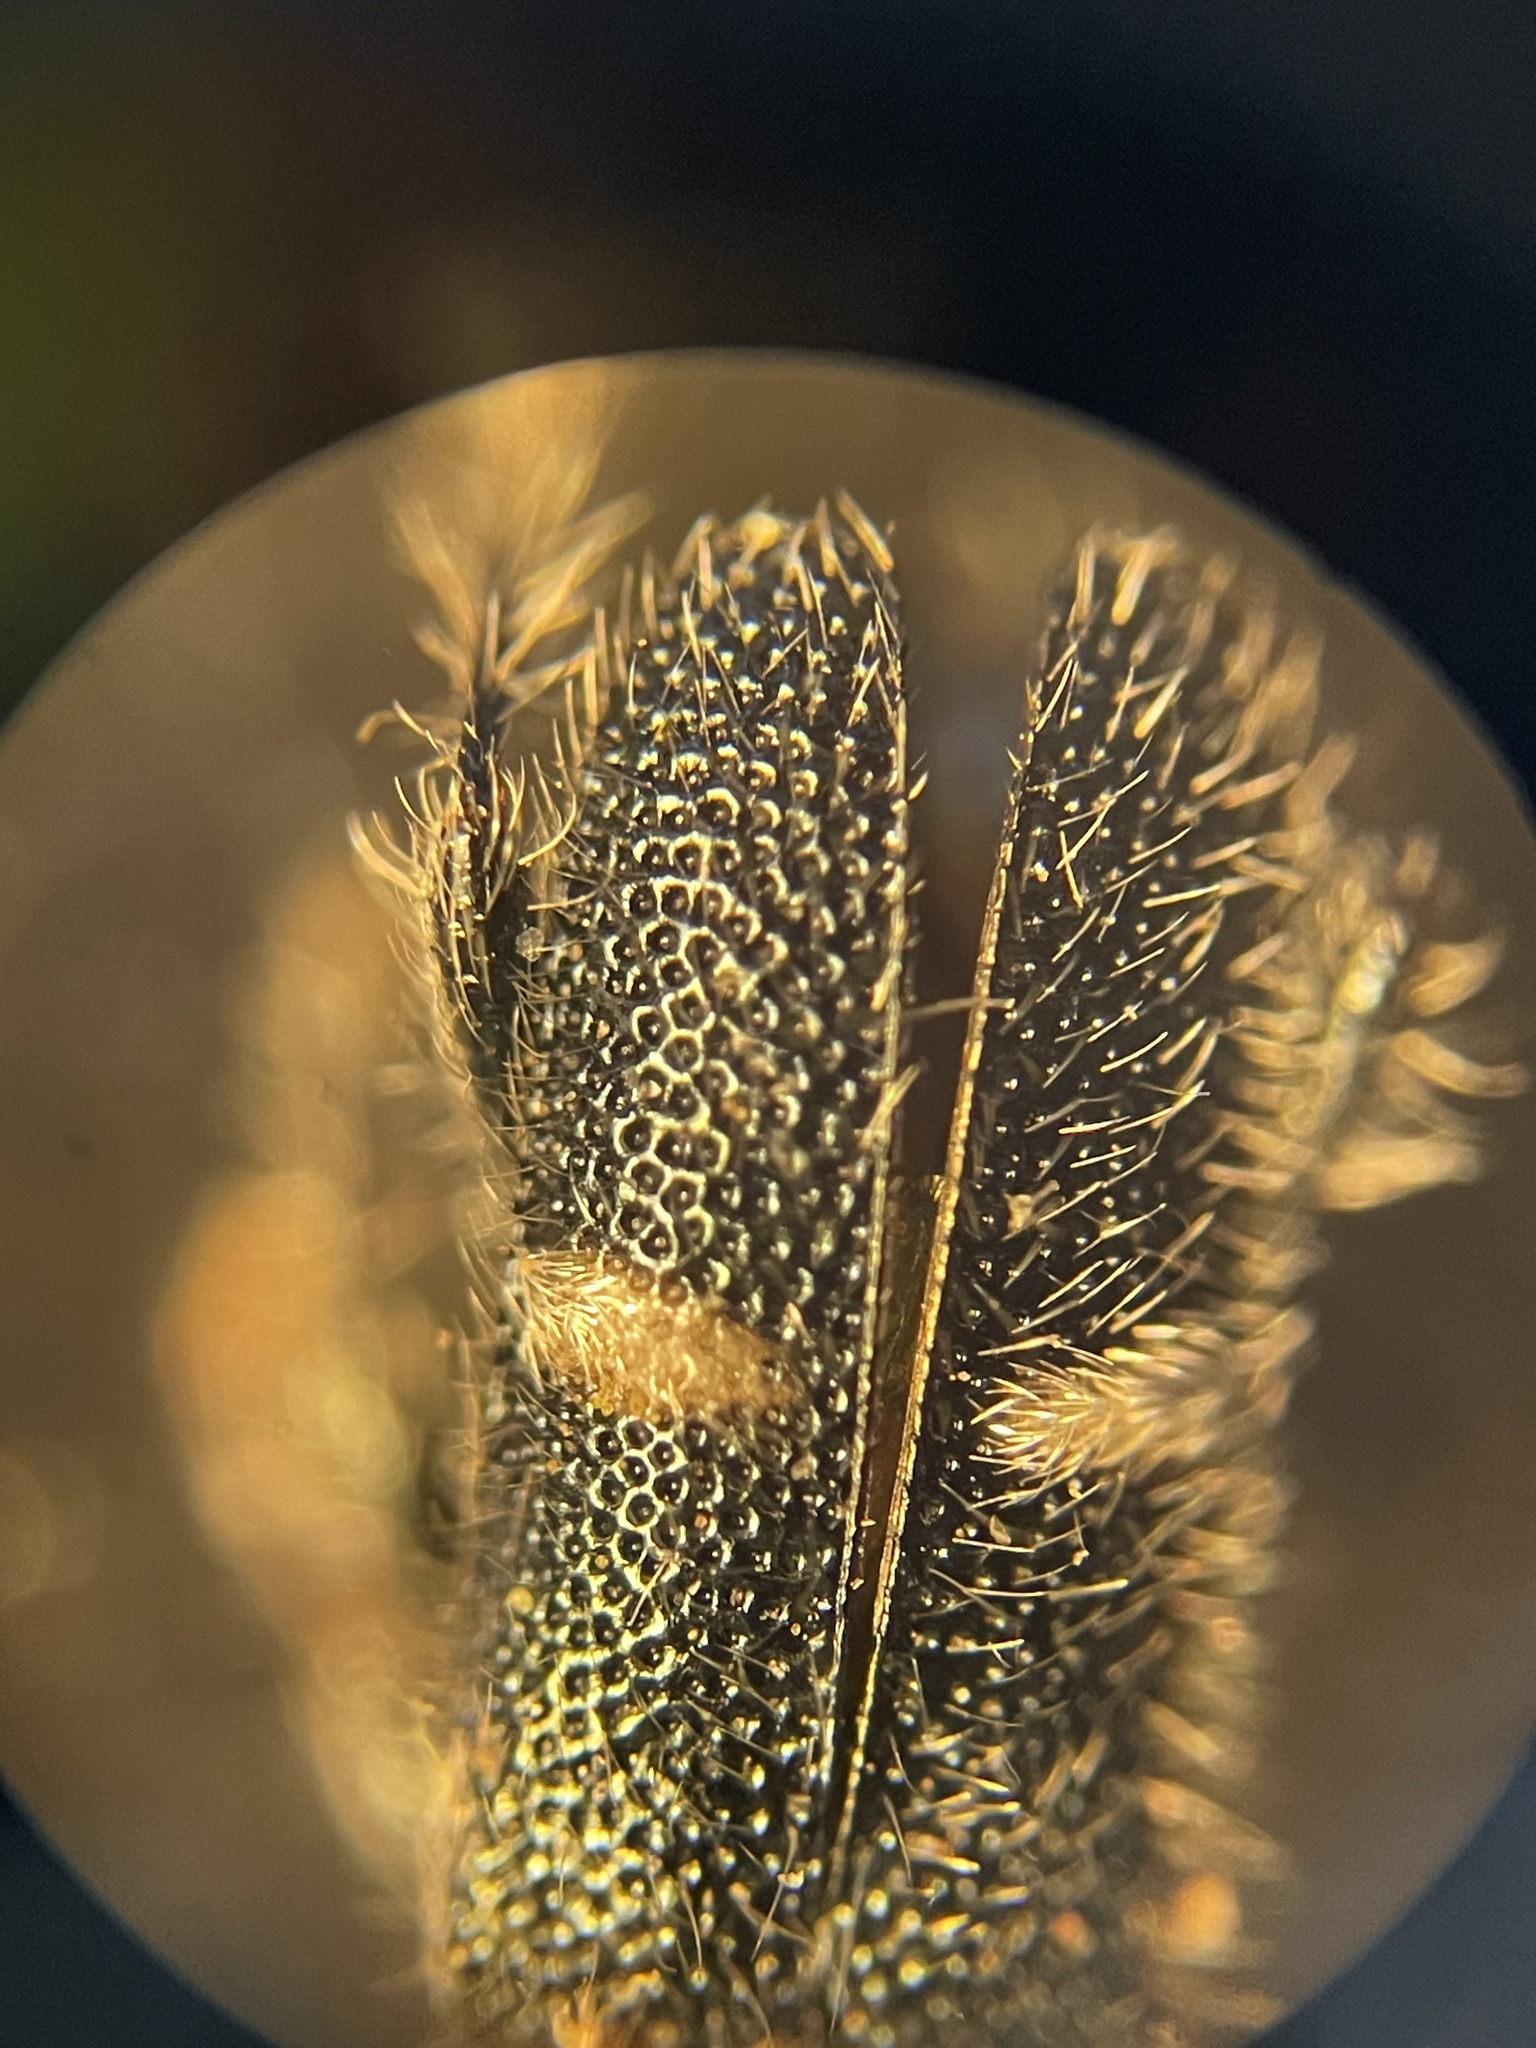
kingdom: Animalia
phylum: Arthropoda
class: Insecta
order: Coleoptera
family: Cleridae
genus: Phyllobaenus
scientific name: Phyllobaenus unifasciatus
